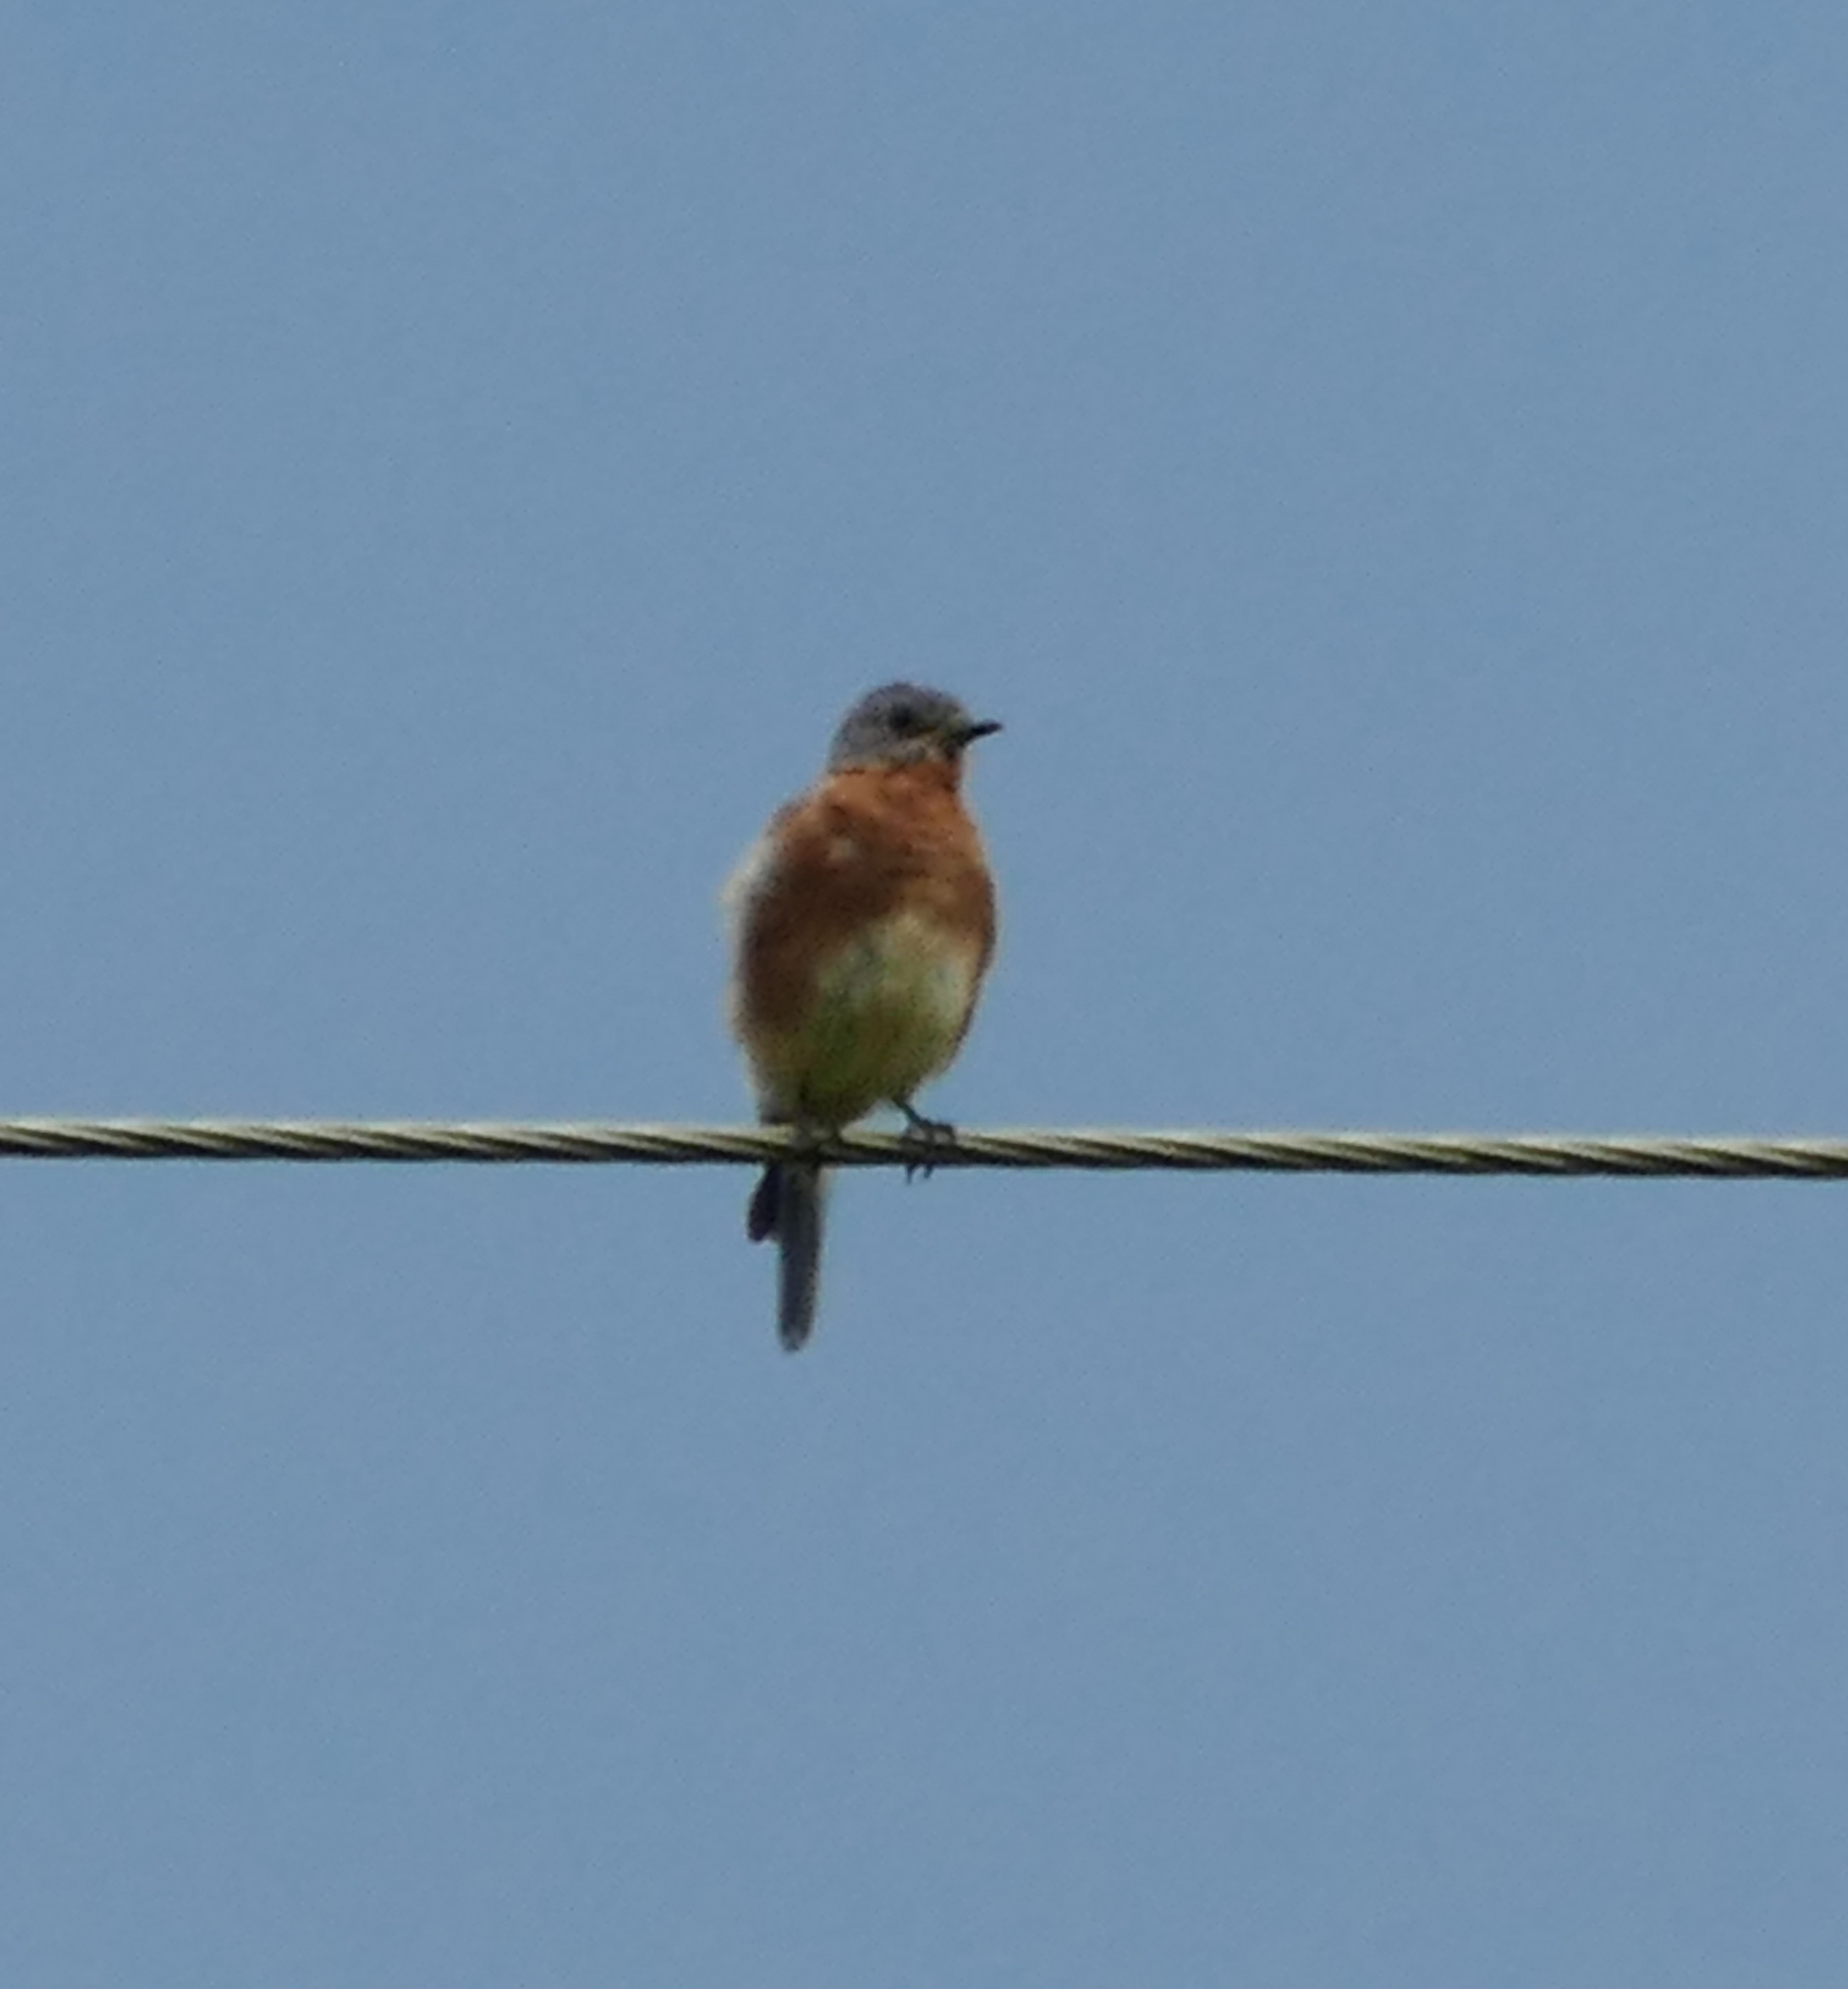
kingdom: Animalia
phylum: Chordata
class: Aves
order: Passeriformes
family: Turdidae
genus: Sialia
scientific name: Sialia sialis
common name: Eastern bluebird
